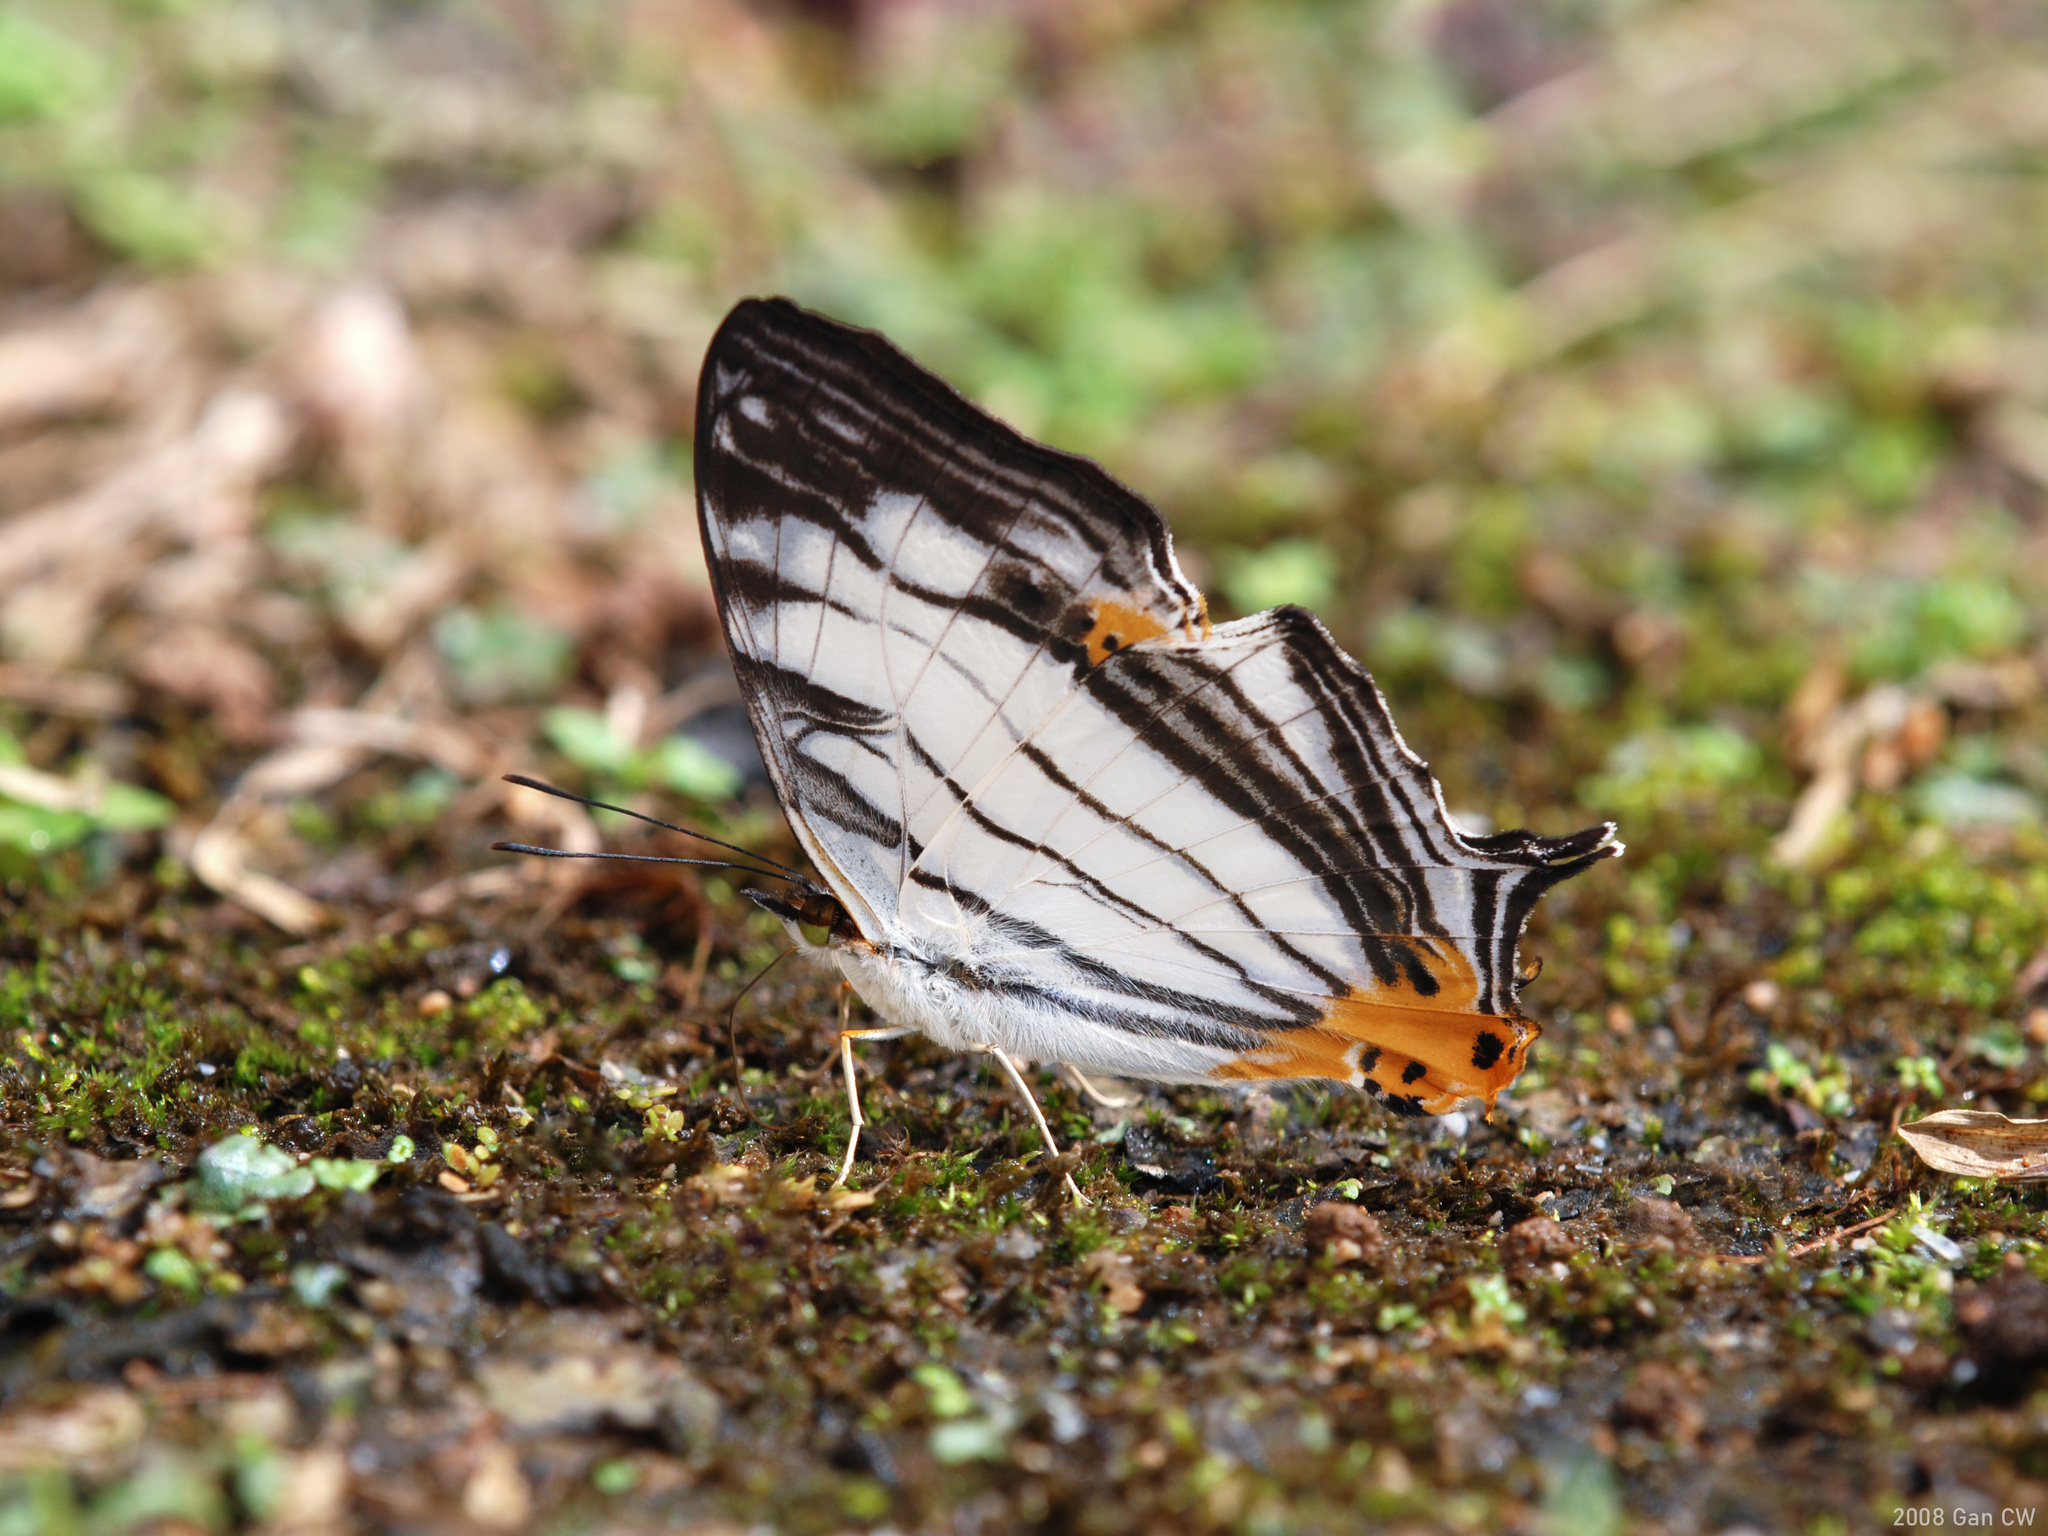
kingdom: Animalia
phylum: Arthropoda
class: Insecta
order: Lepidoptera
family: Nymphalidae
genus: Cyrestis
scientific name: Cyrestis maenalis
